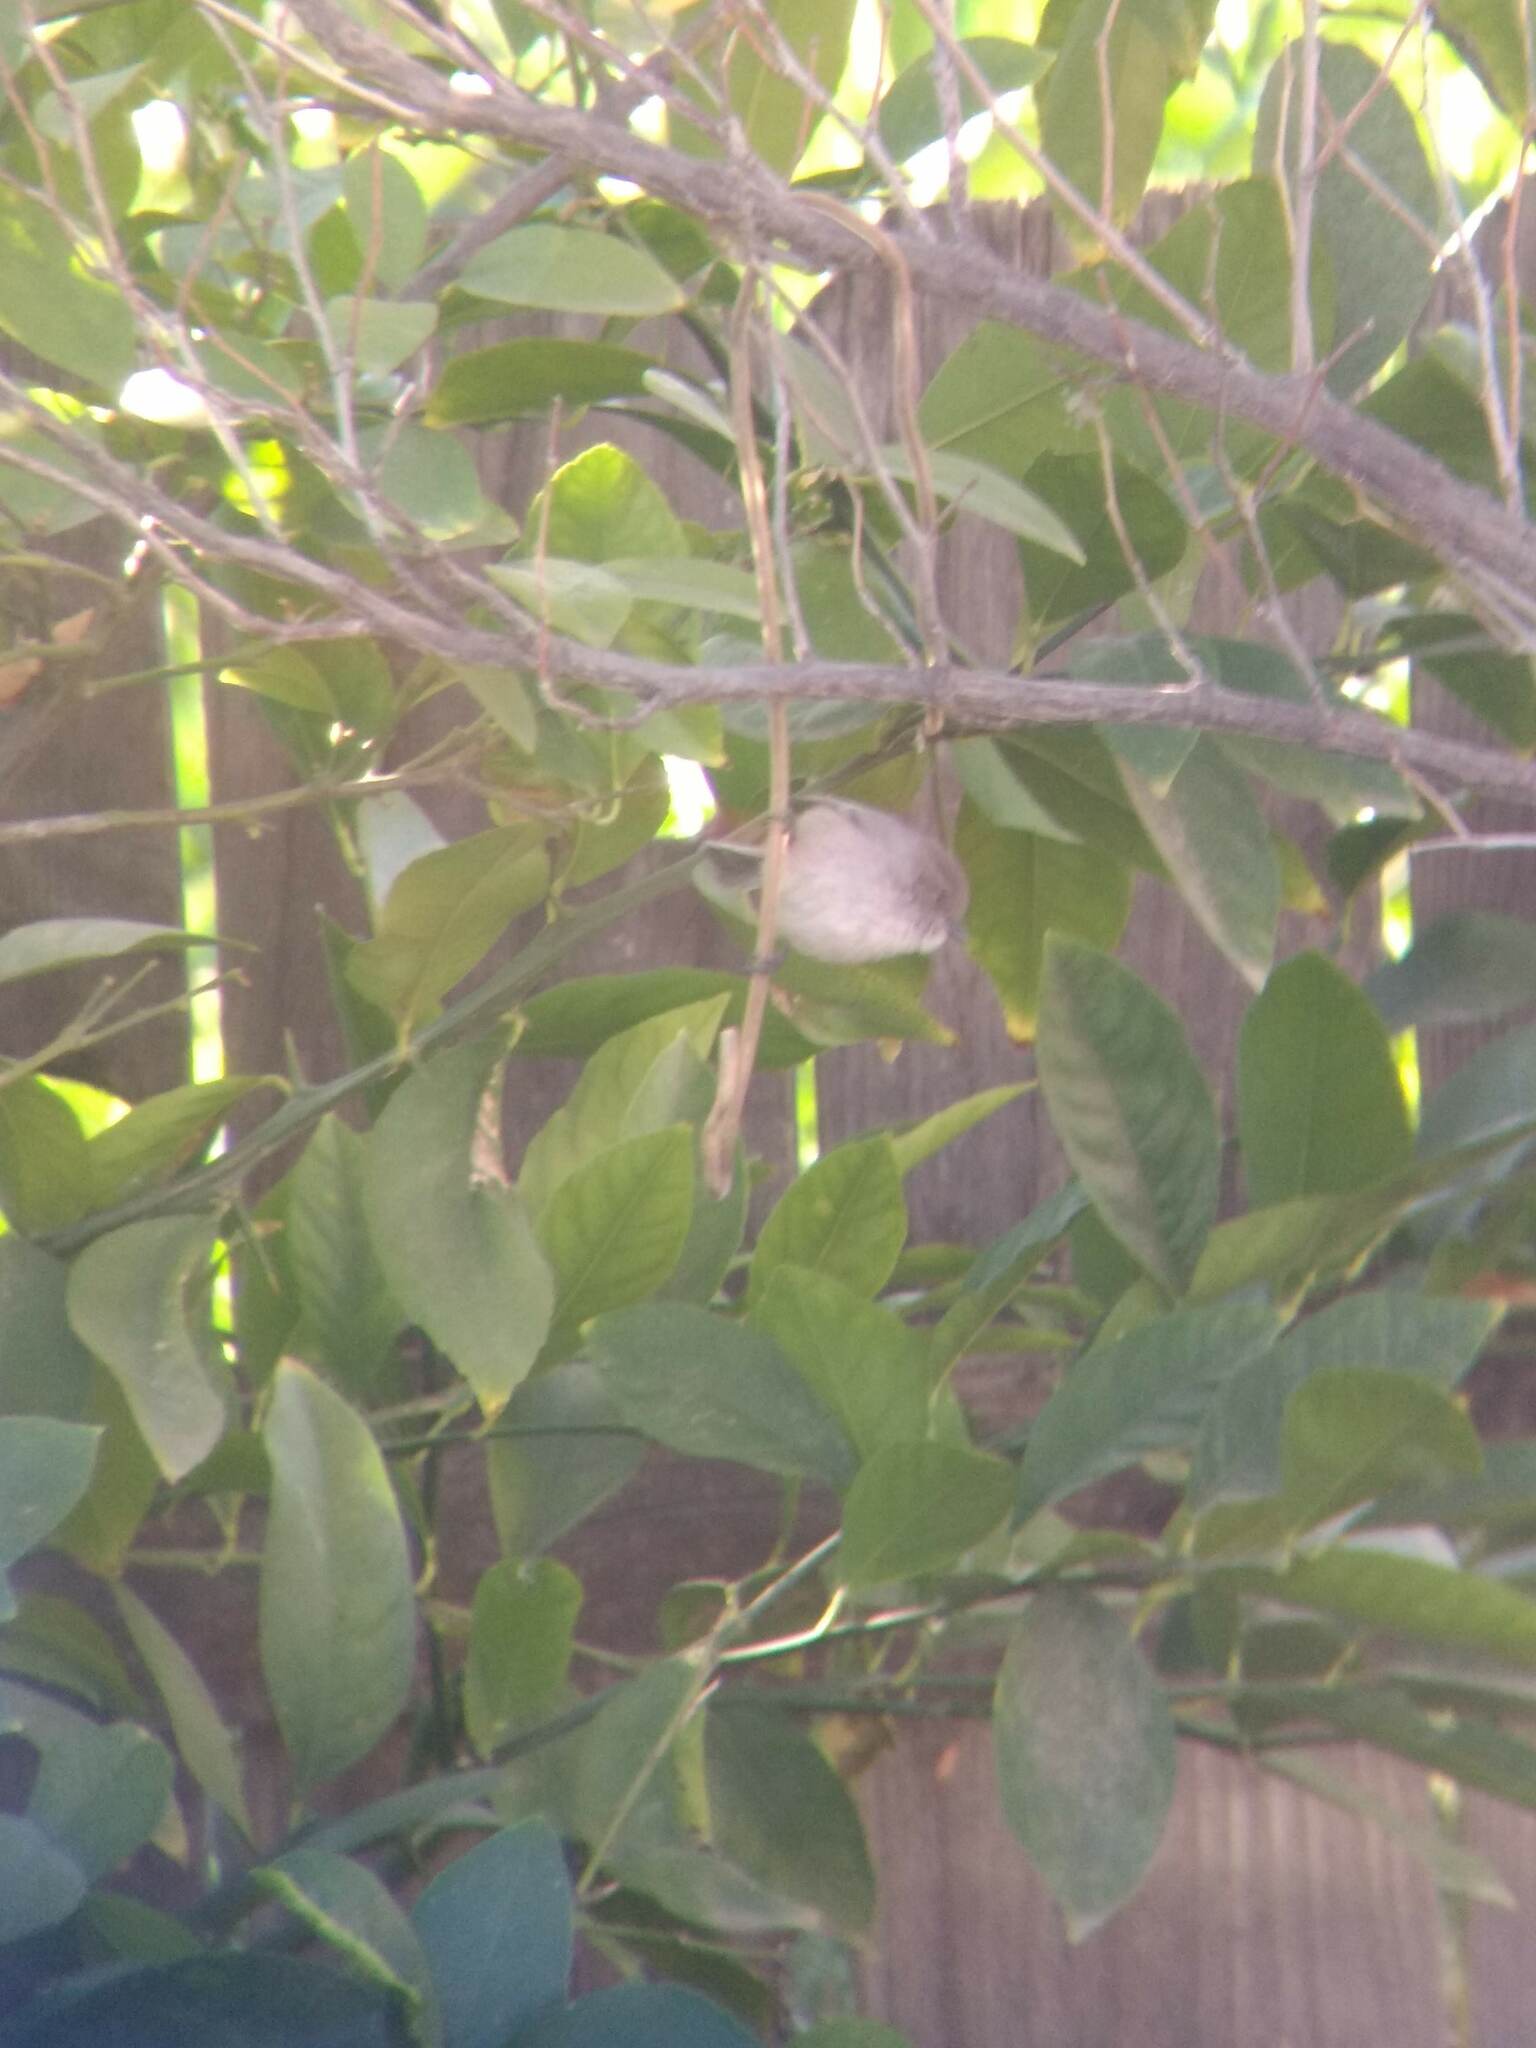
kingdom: Animalia
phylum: Chordata
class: Aves
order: Passeriformes
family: Aegithalidae
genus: Psaltriparus
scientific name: Psaltriparus minimus
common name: American bushtit
